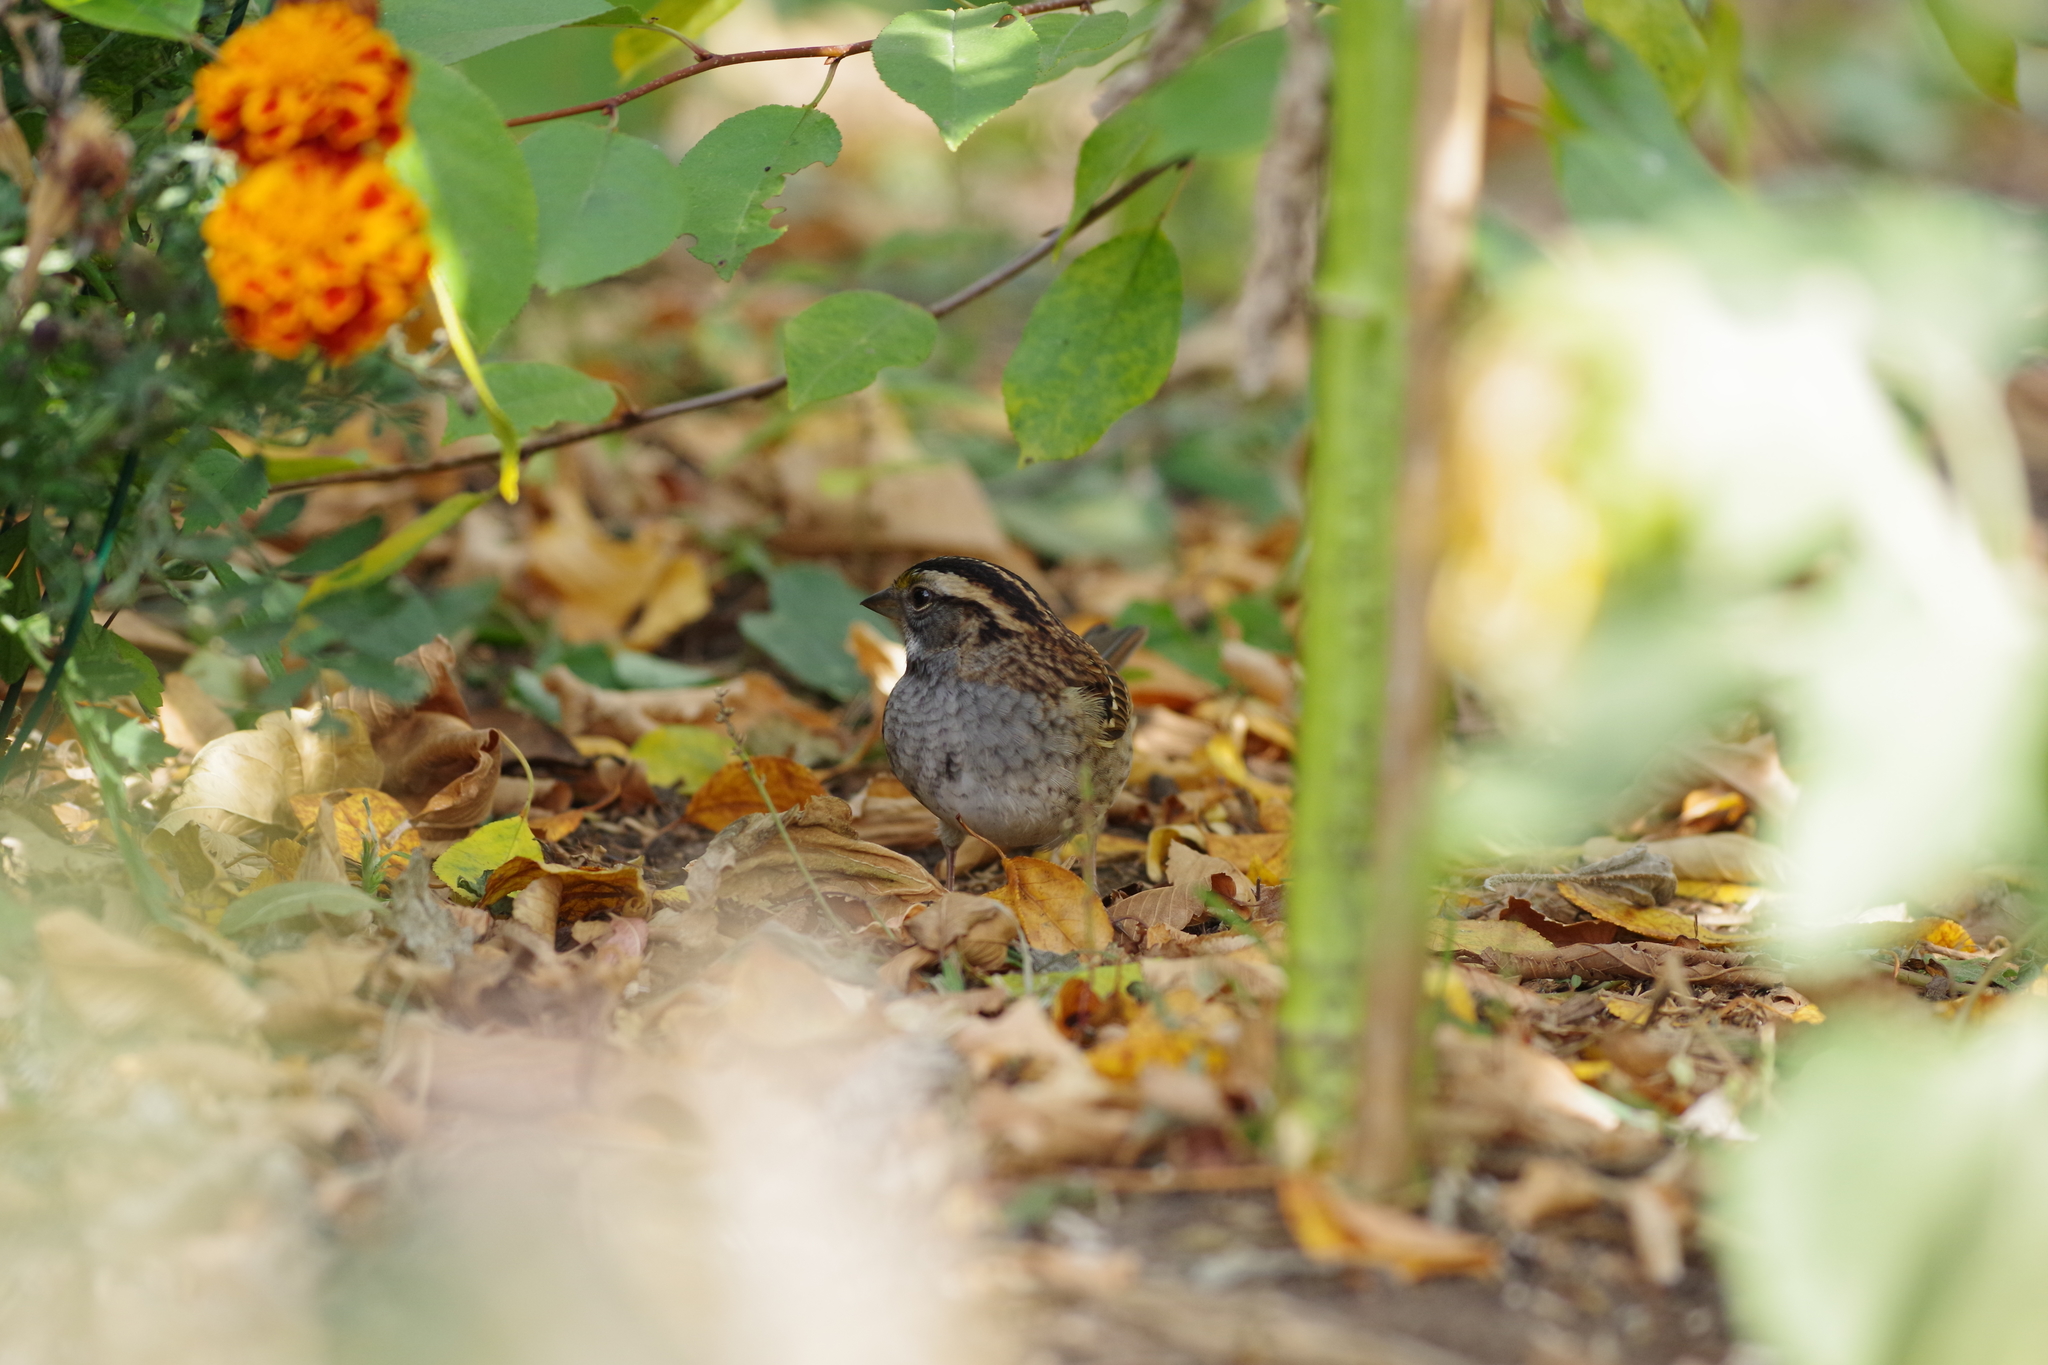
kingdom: Animalia
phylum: Chordata
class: Aves
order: Passeriformes
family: Passerellidae
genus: Zonotrichia
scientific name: Zonotrichia albicollis
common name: White-throated sparrow
